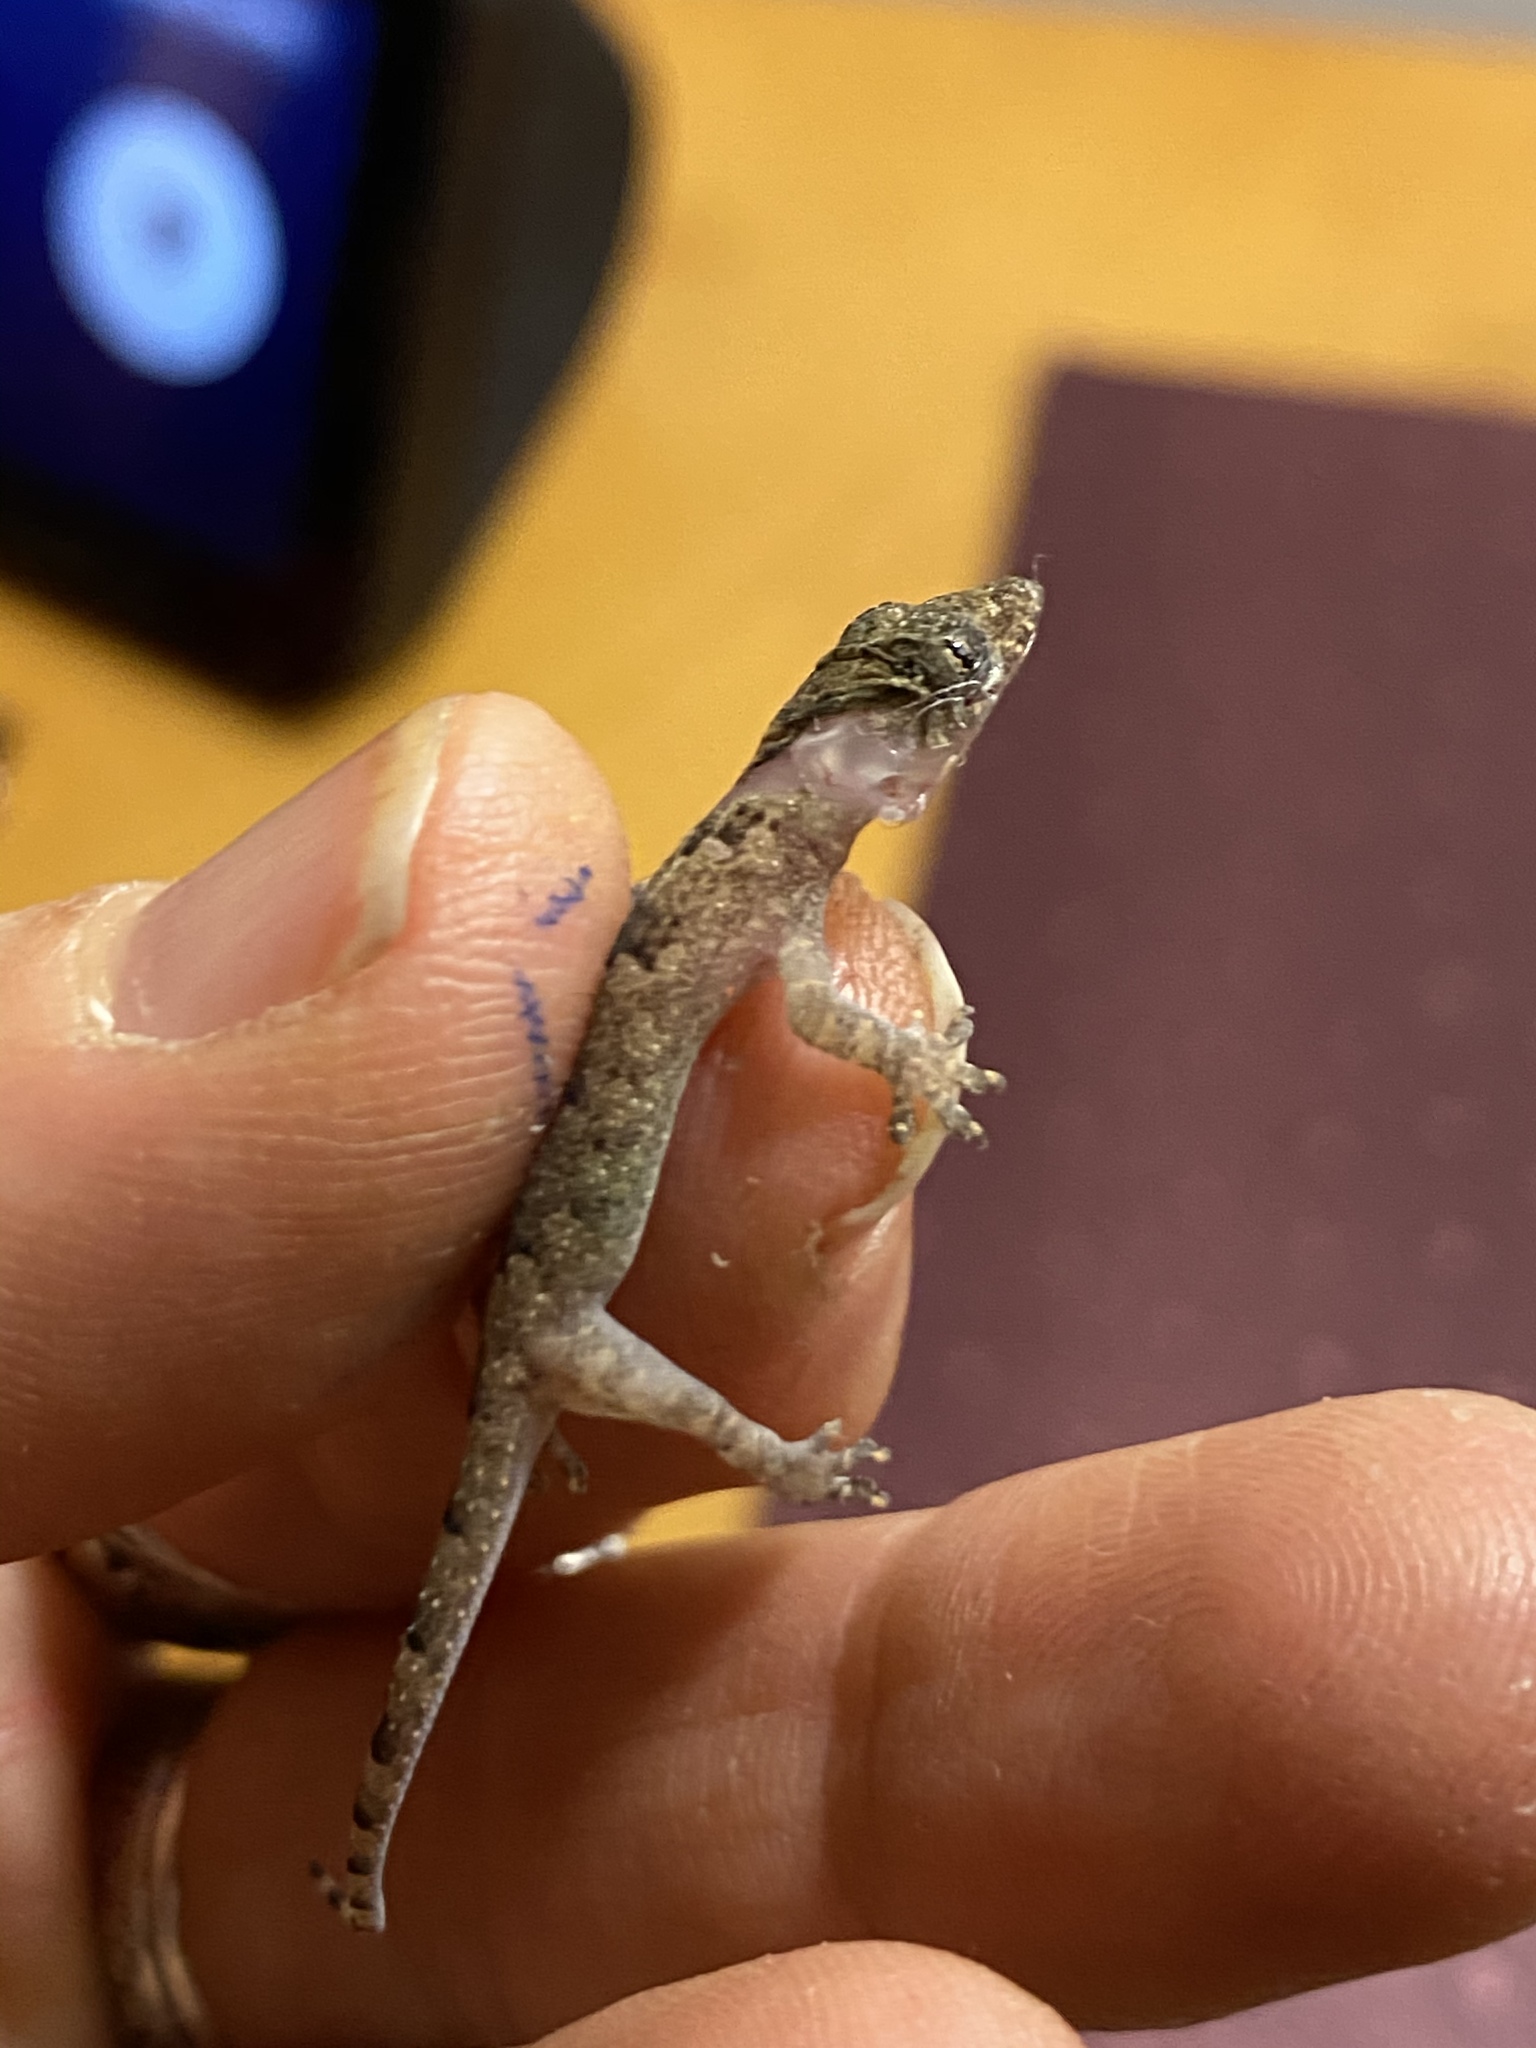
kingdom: Animalia
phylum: Chordata
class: Squamata
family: Gekkonidae
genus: Hemidactylus
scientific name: Hemidactylus mabouia
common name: House gecko
